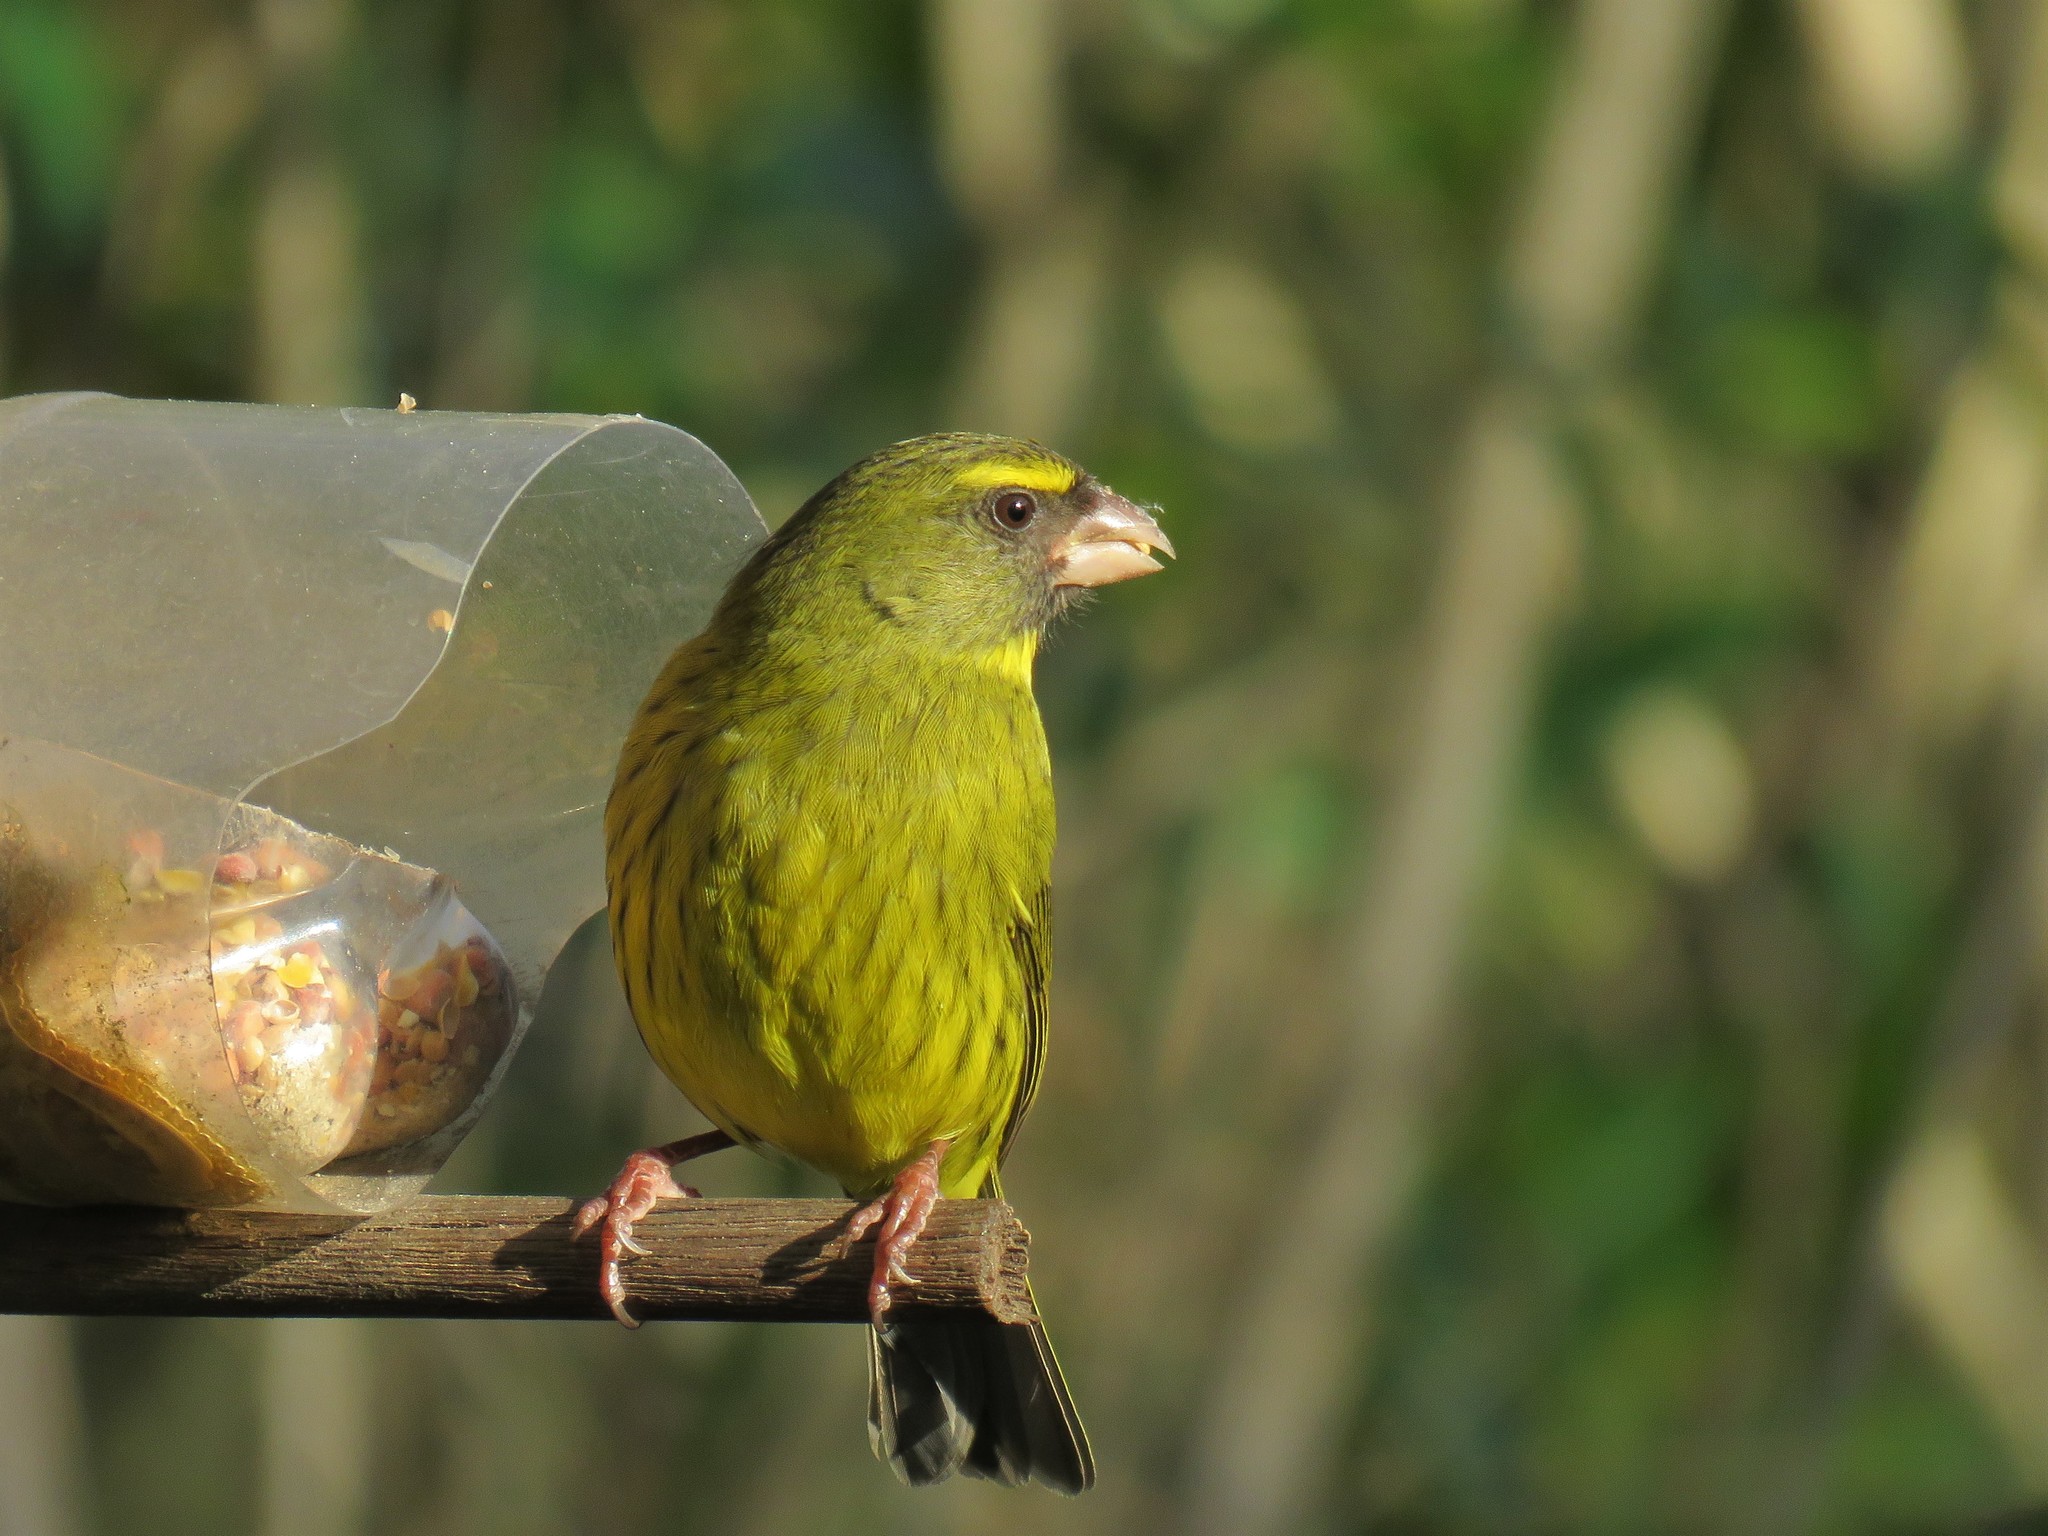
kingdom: Animalia
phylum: Chordata
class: Aves
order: Passeriformes
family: Fringillidae
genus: Crithagra
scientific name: Crithagra scotops
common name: Forest canary
